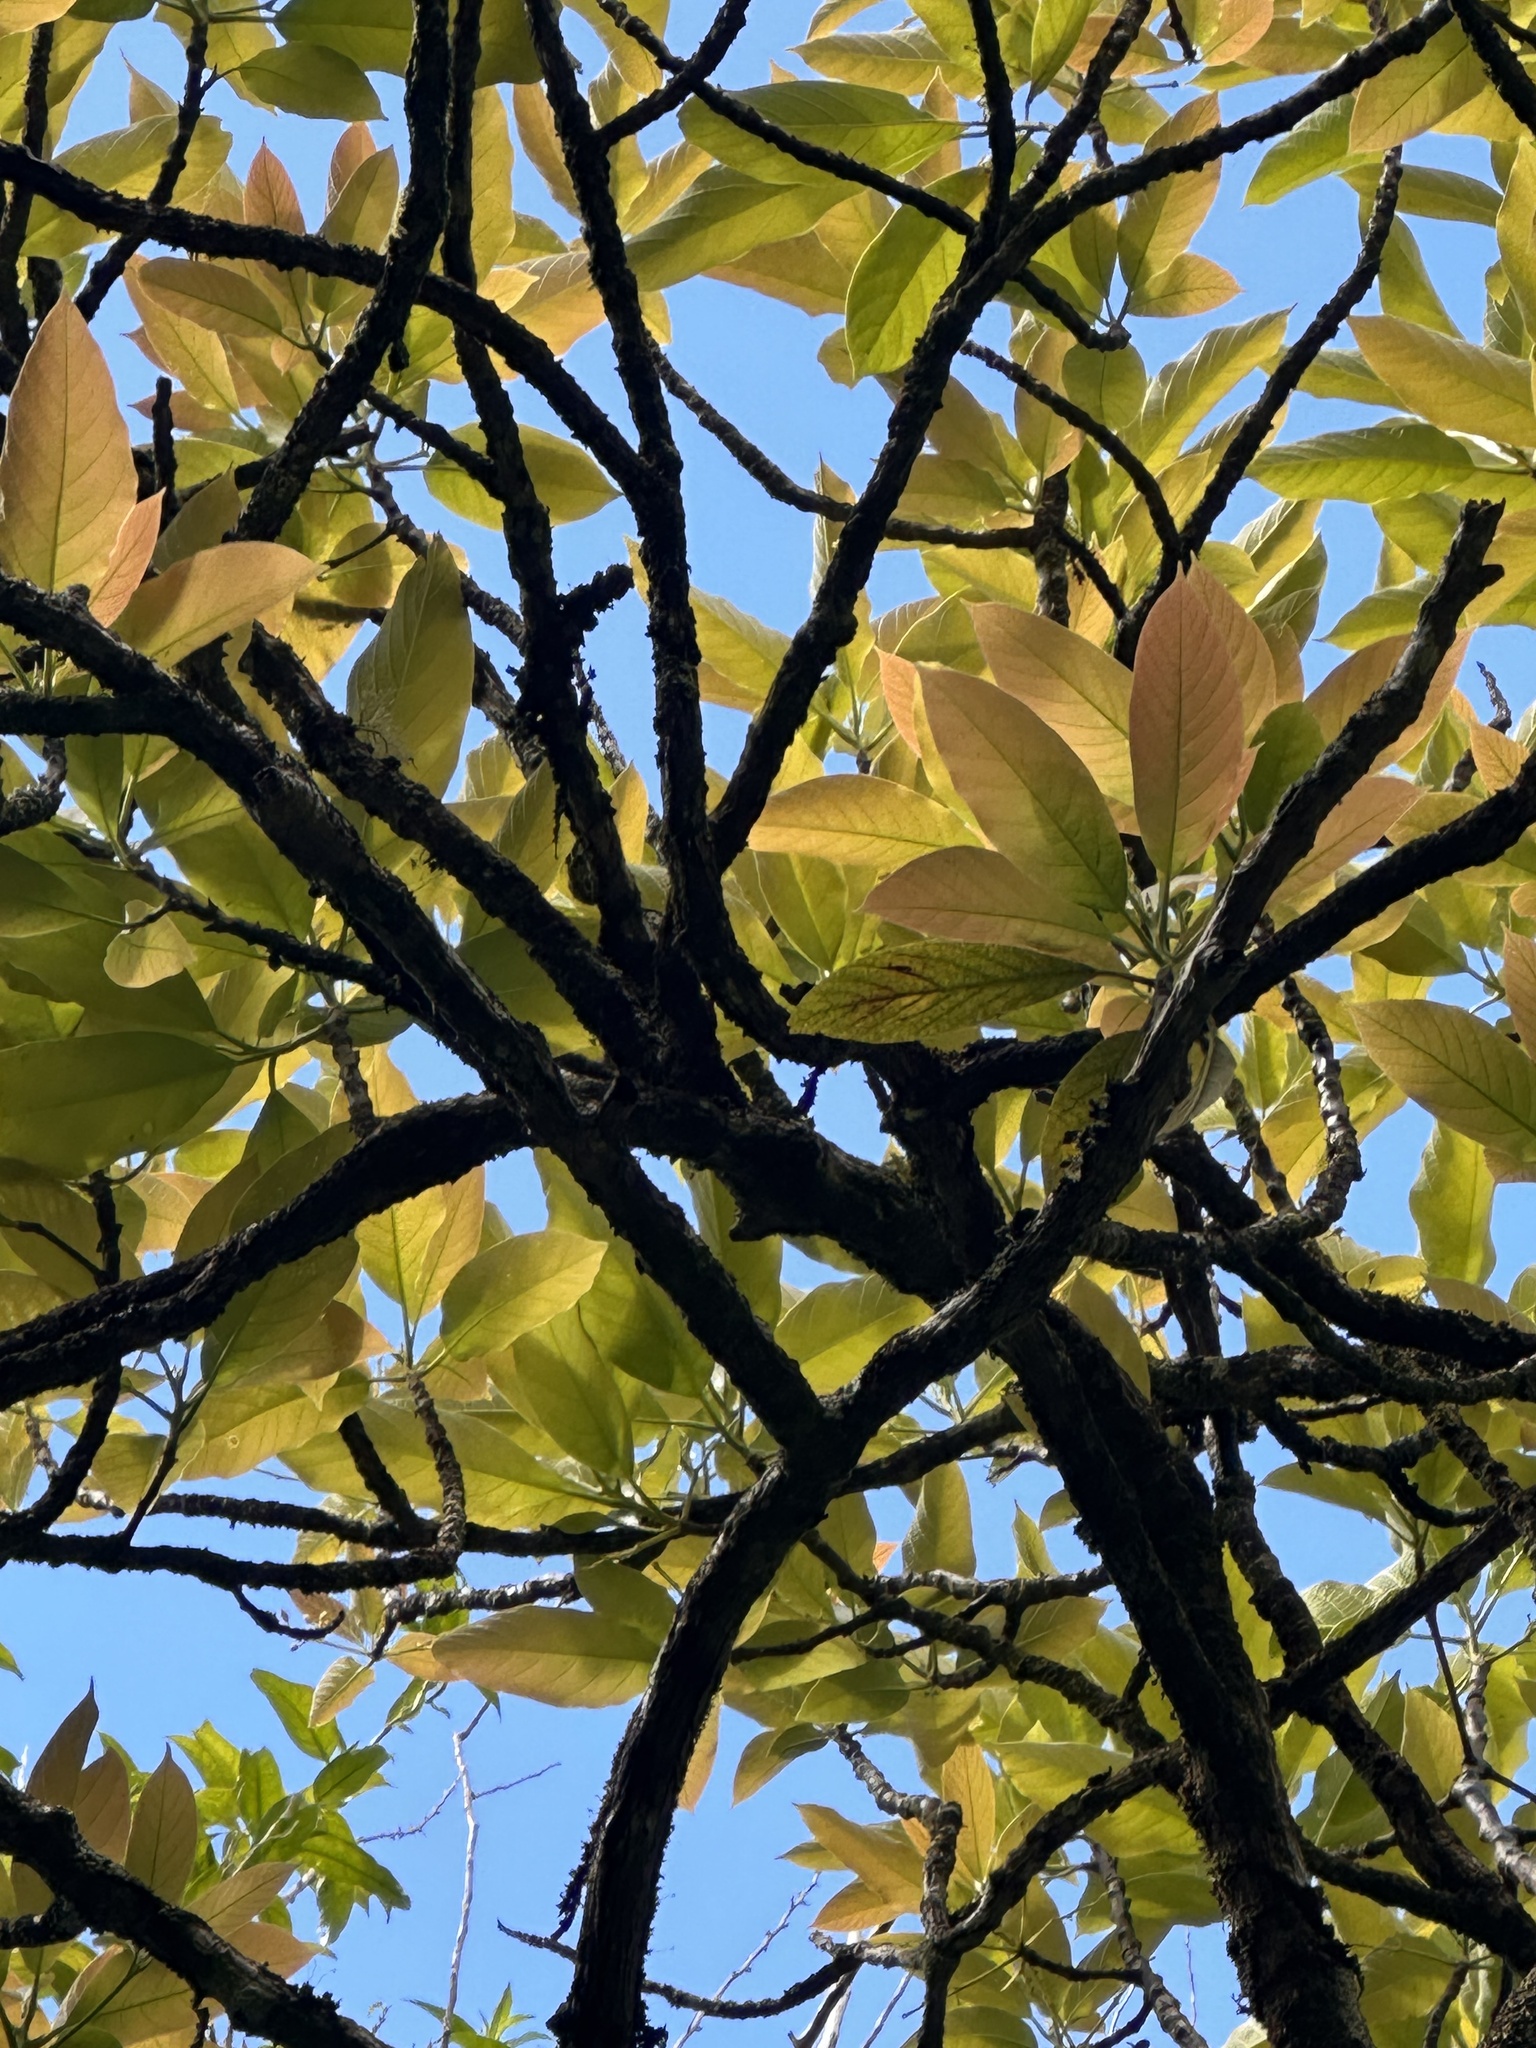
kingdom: Plantae
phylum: Tracheophyta
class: Magnoliopsida
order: Laurales
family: Lauraceae
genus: Persea
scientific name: Persea americana
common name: Avocado
